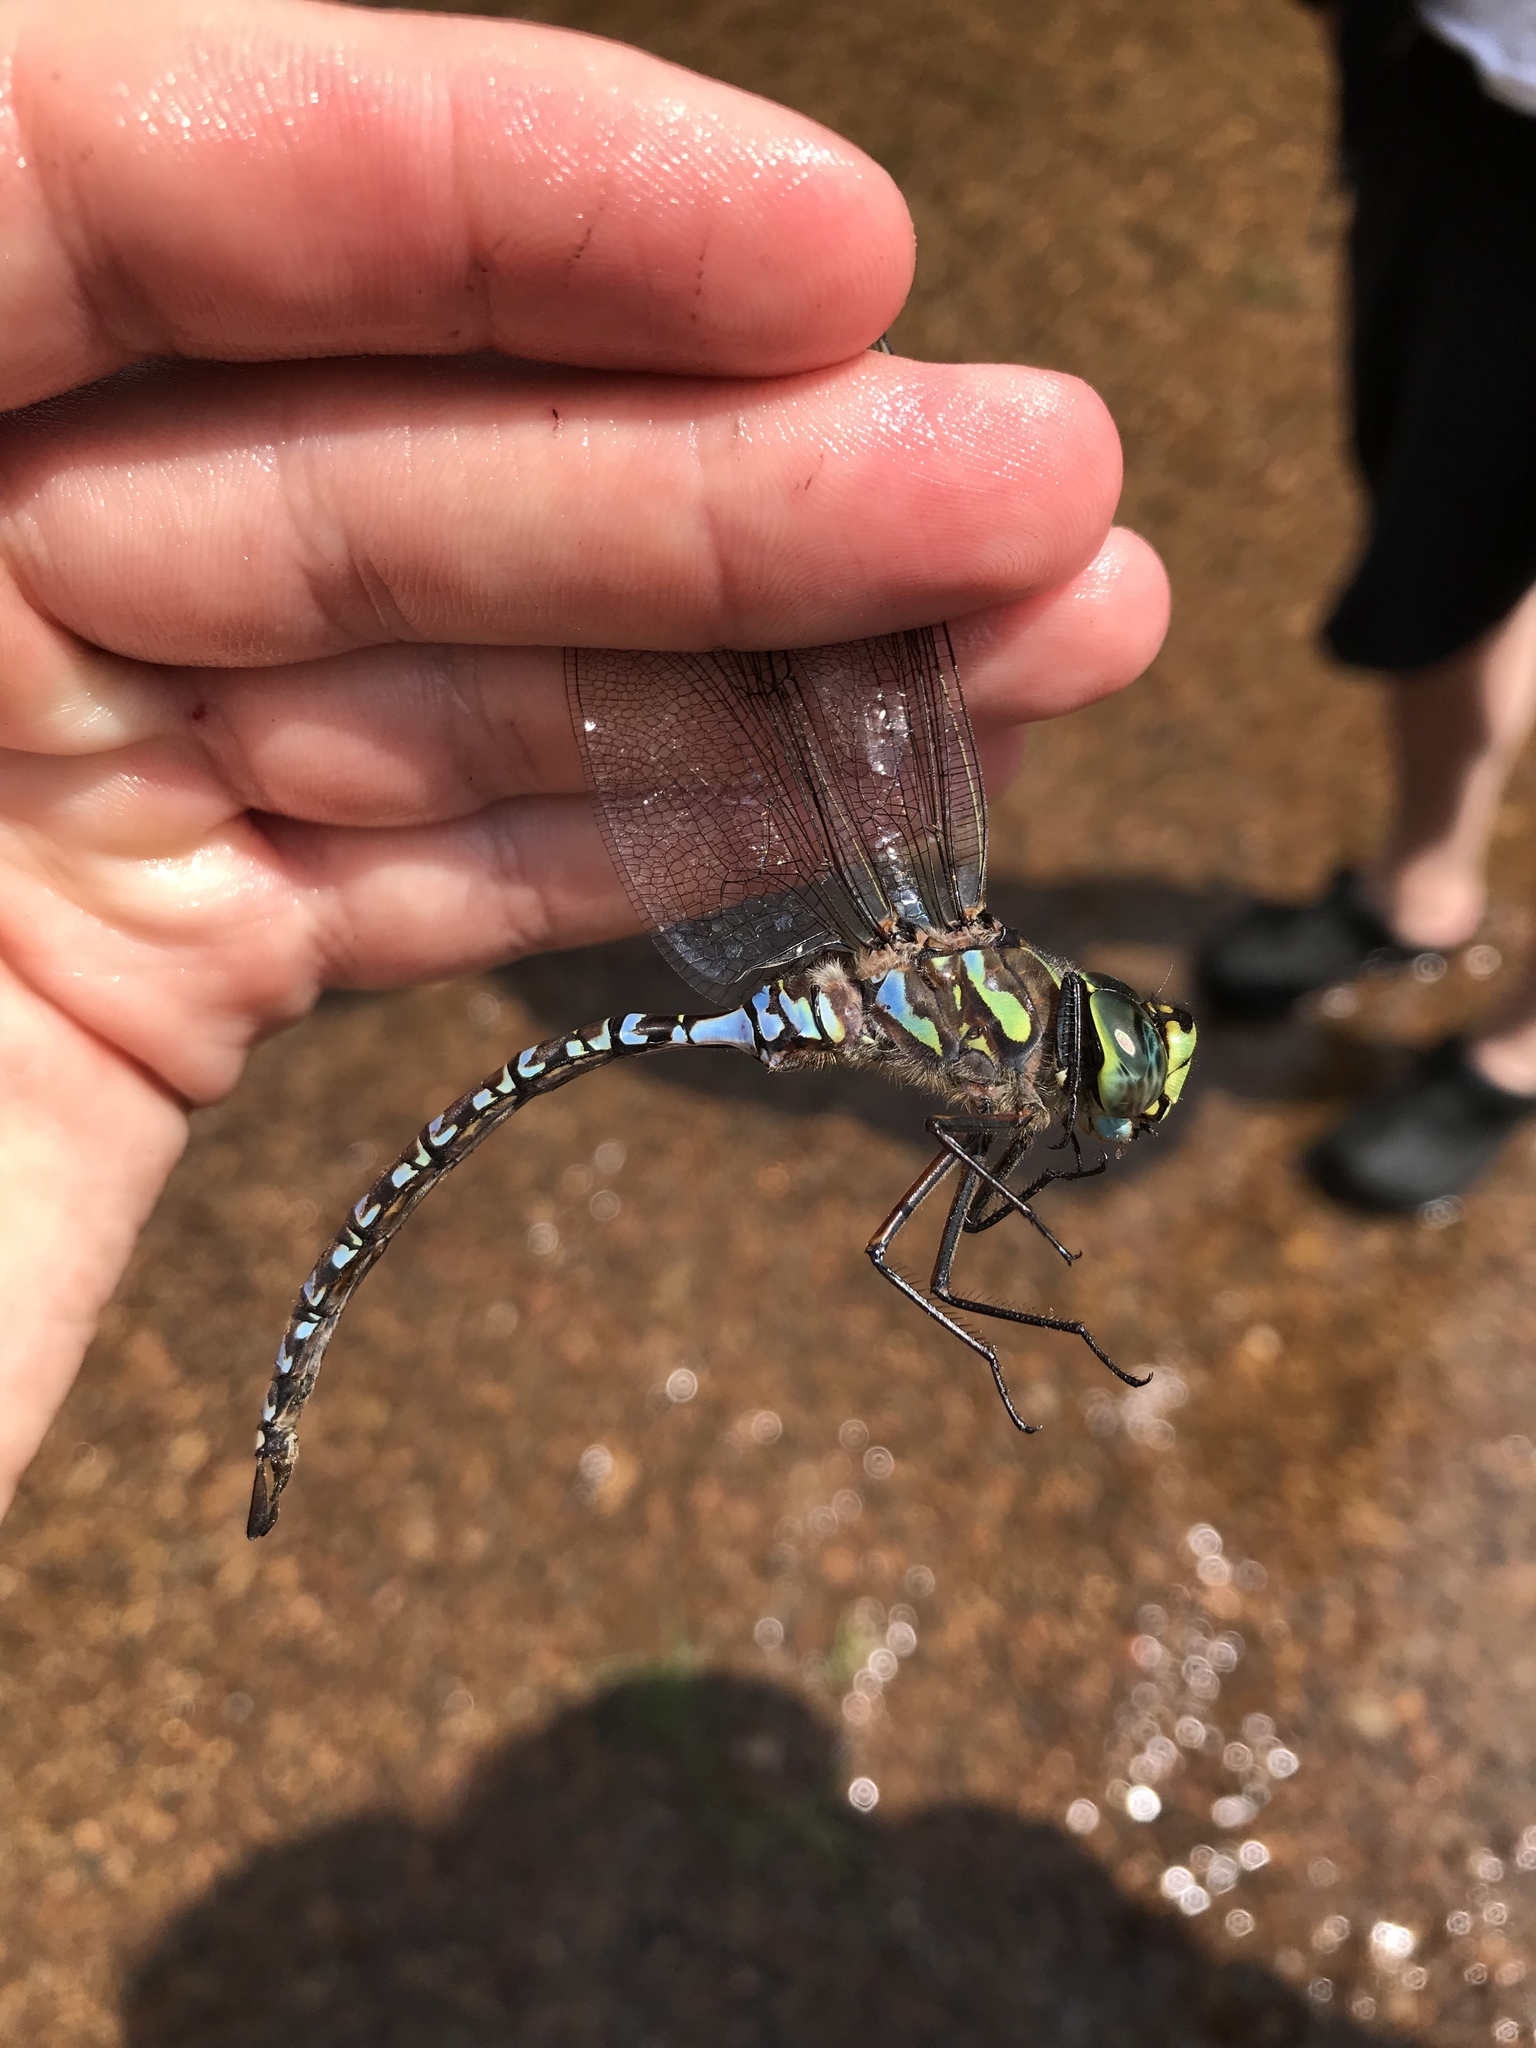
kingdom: Animalia
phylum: Arthropoda
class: Insecta
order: Odonata
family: Aeshnidae
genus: Aeshna
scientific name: Aeshna eremita
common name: Lake darner
